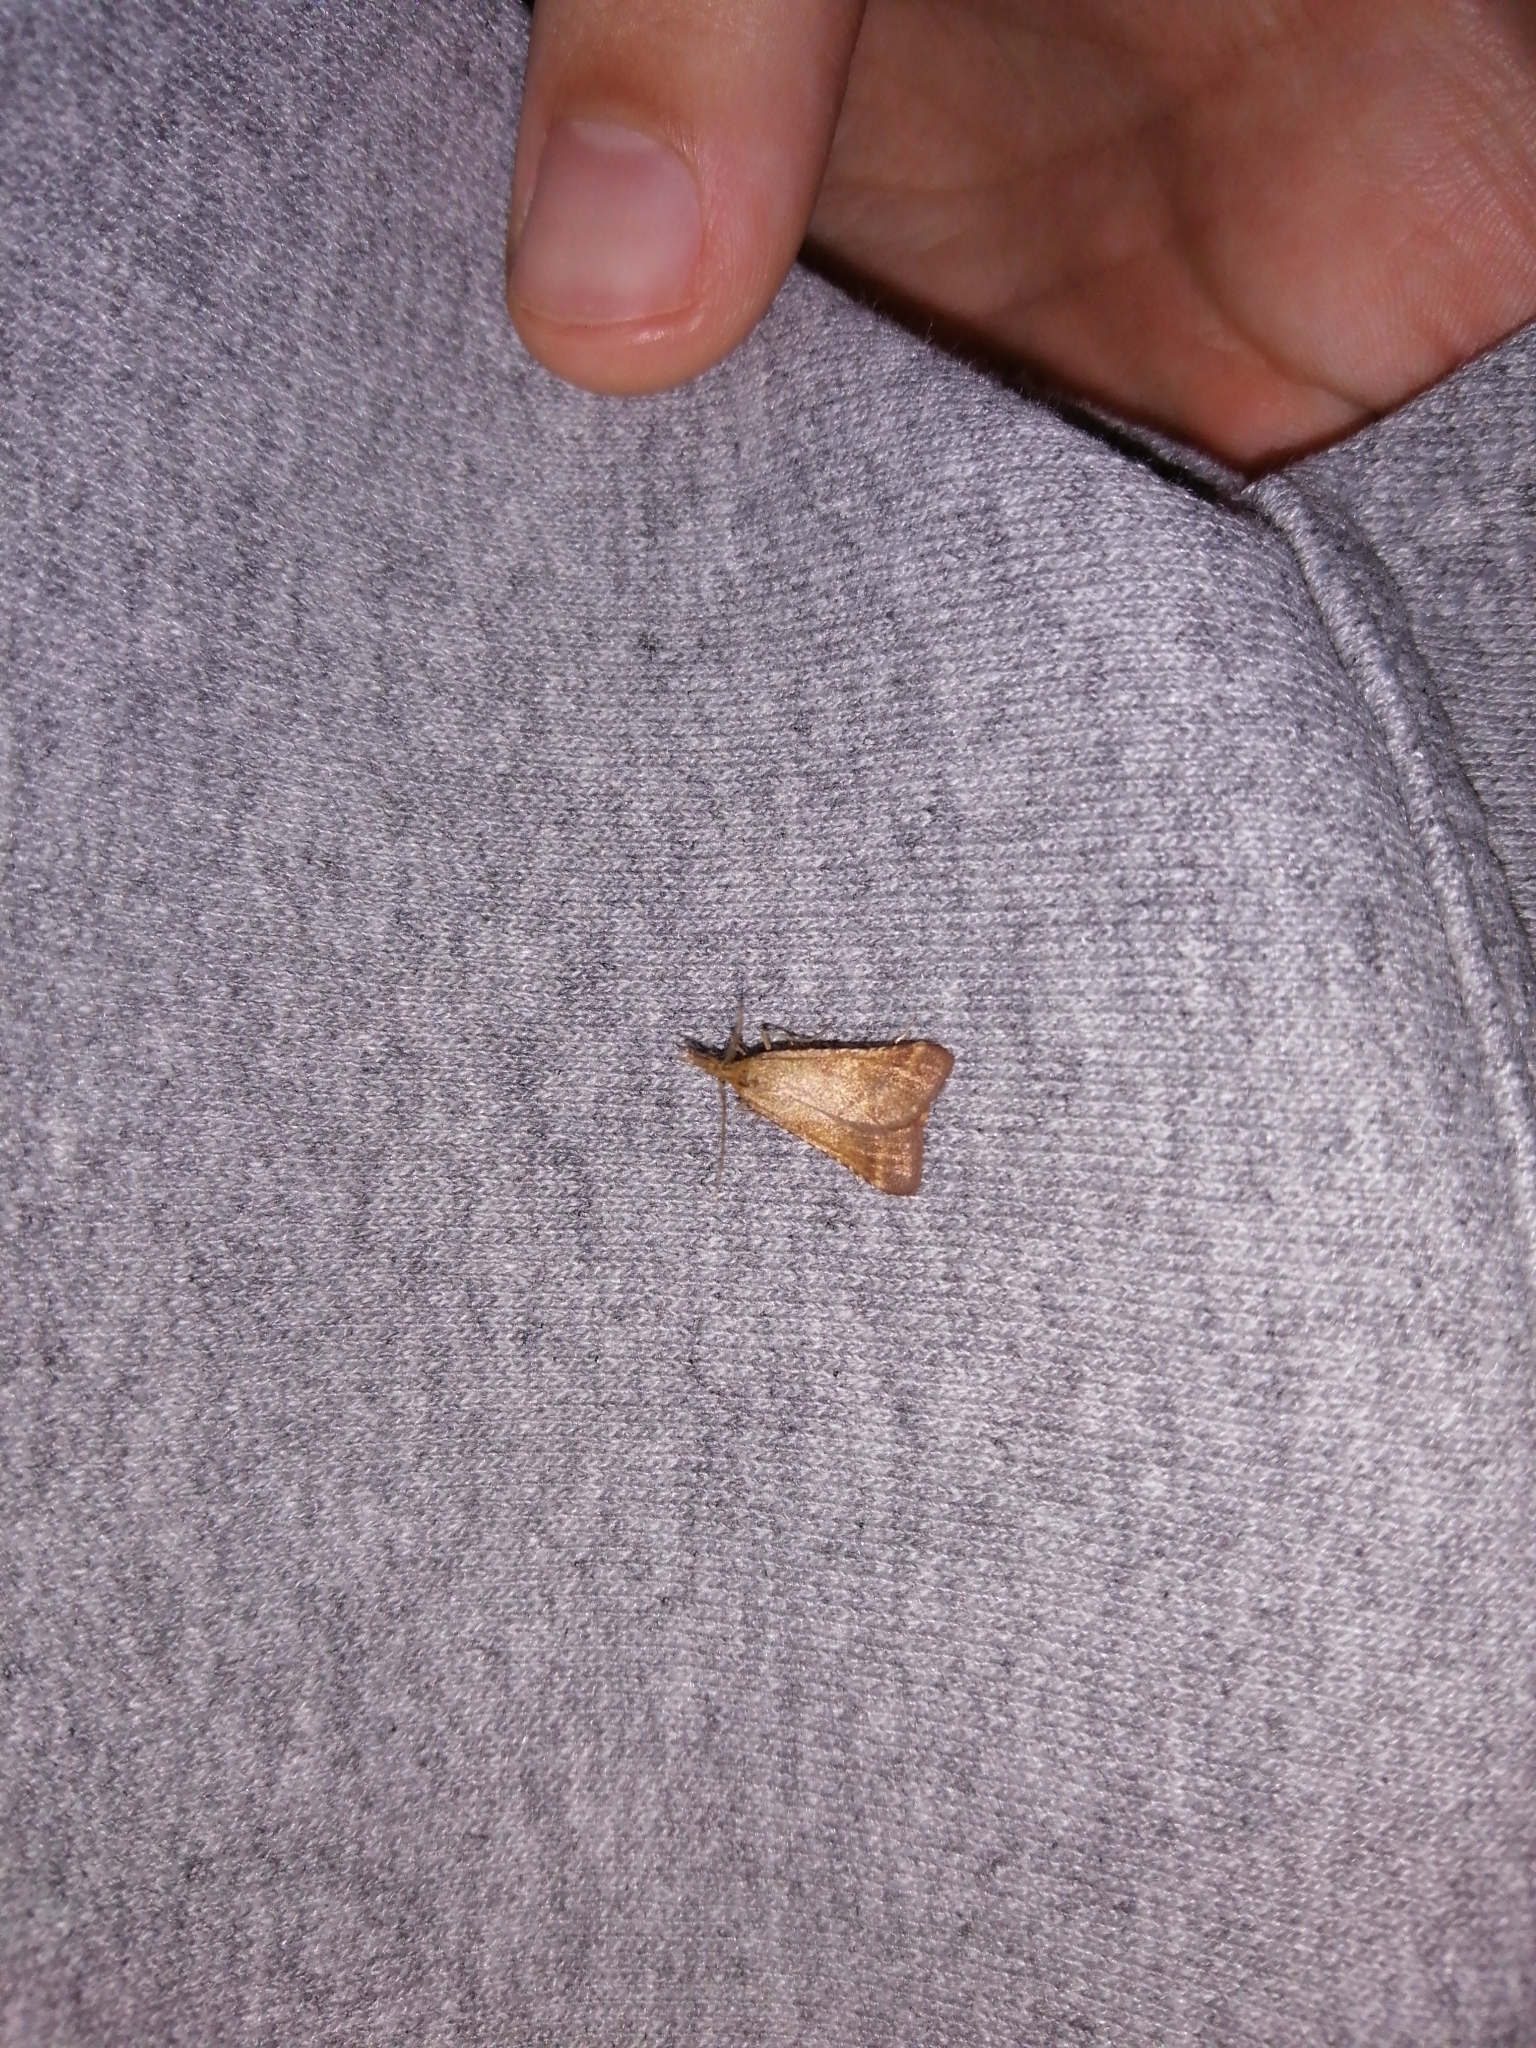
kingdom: Animalia
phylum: Arthropoda
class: Insecta
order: Lepidoptera
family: Pyralidae
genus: Synaphe
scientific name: Synaphe punctalis
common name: Long-legged tabby
